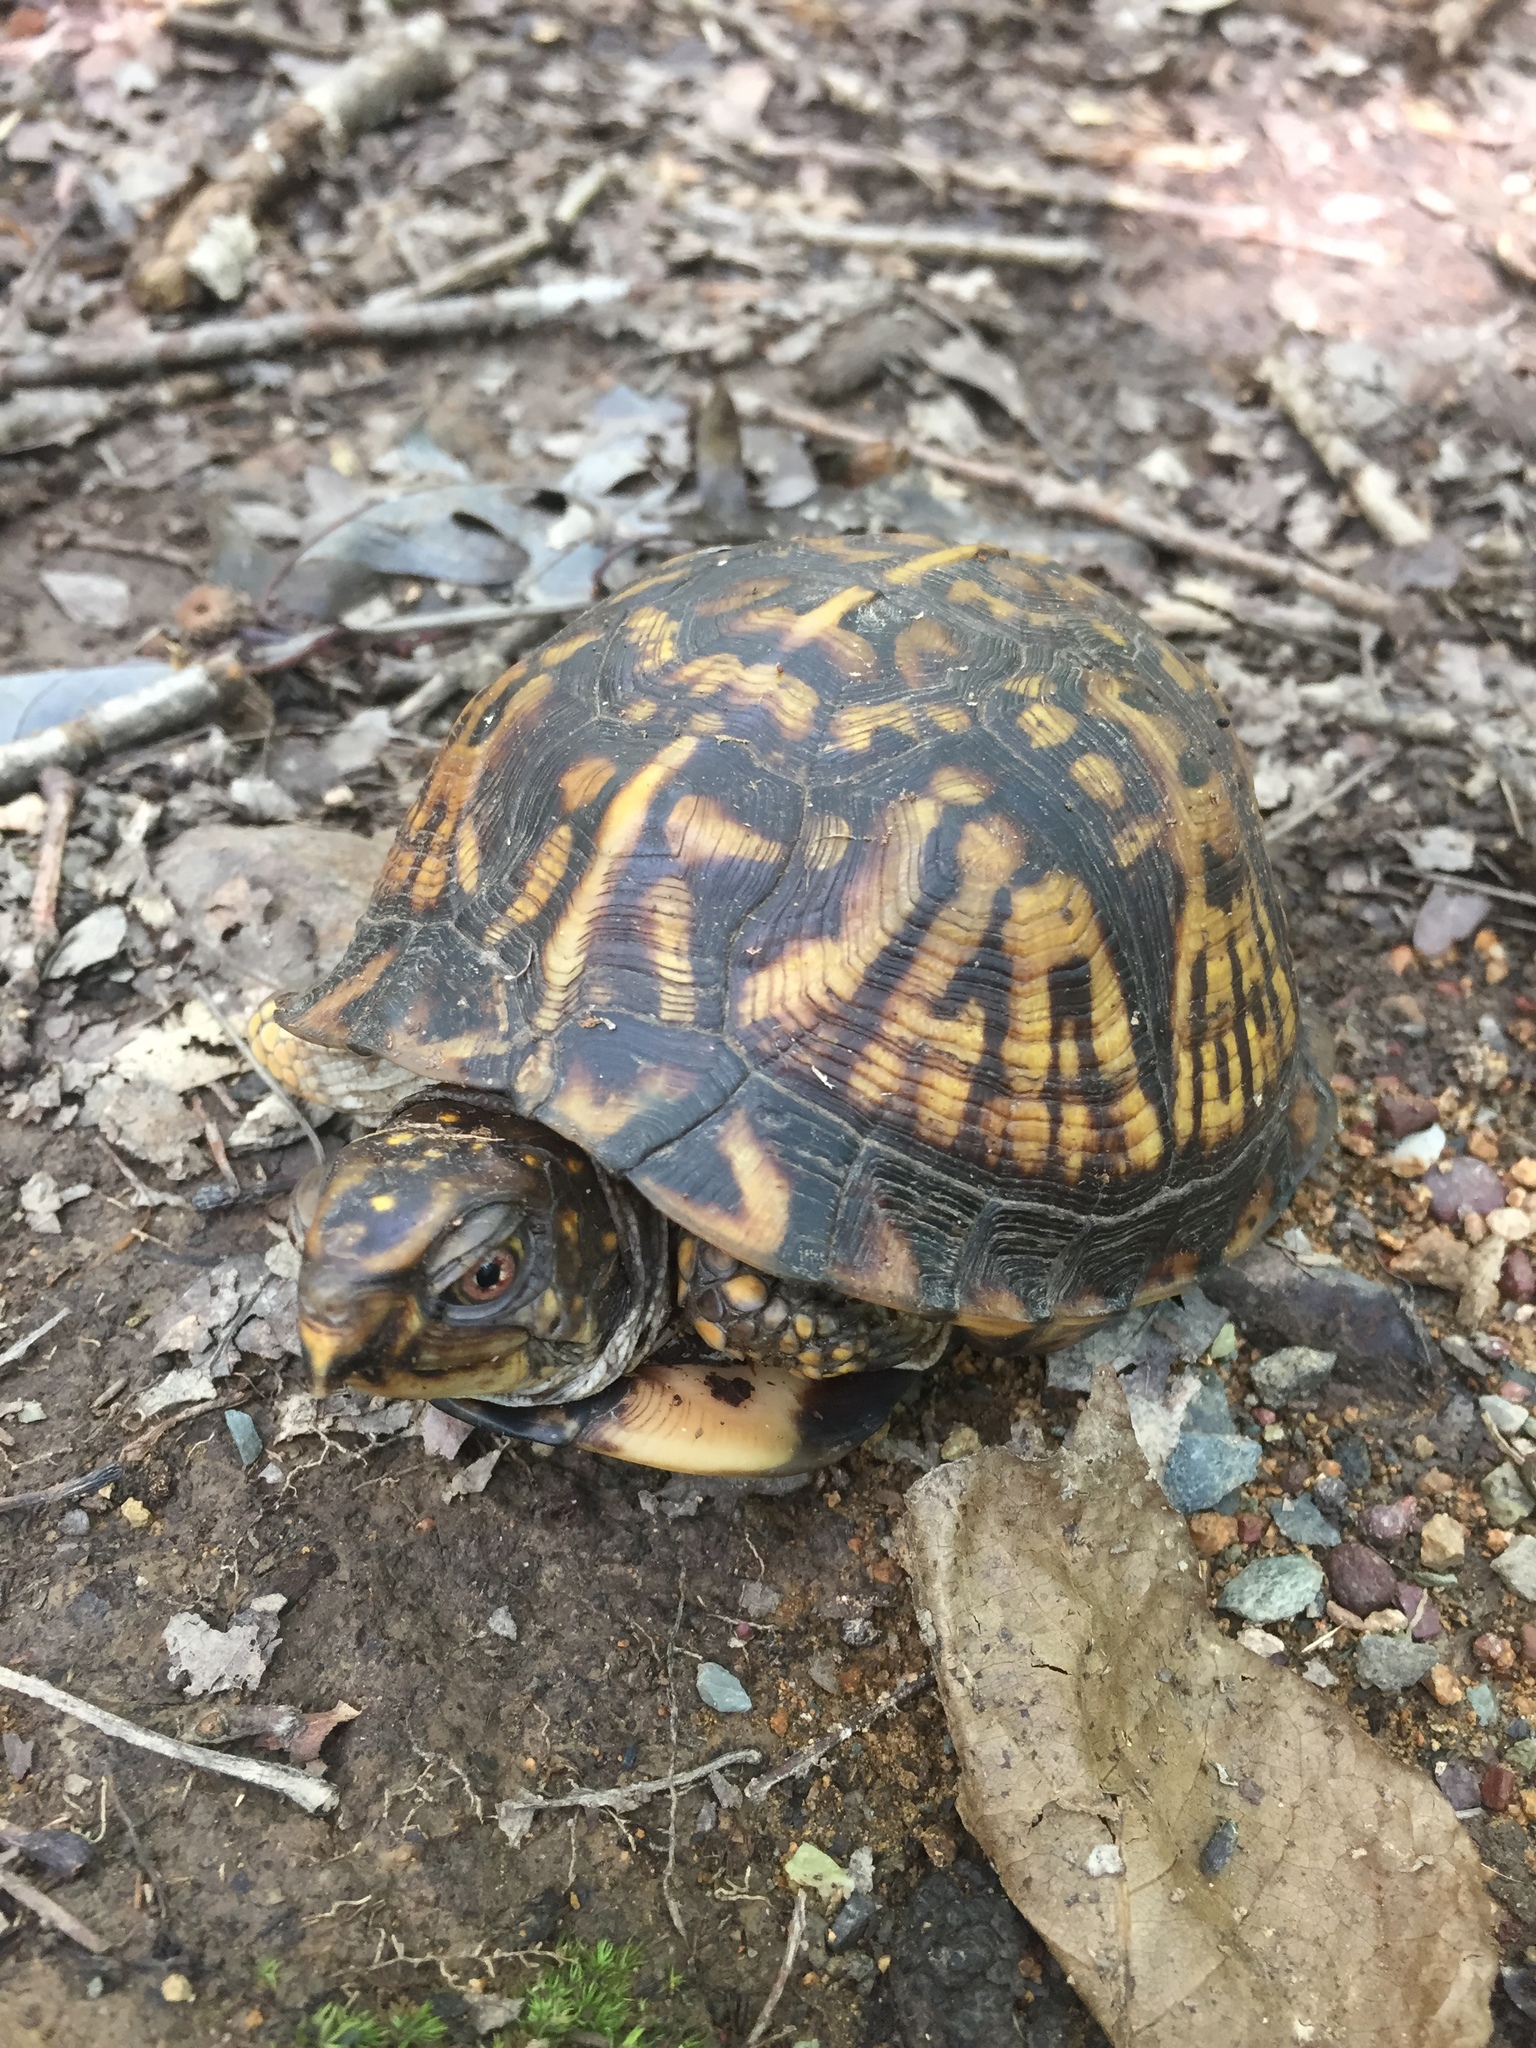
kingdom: Animalia
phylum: Chordata
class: Testudines
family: Emydidae
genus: Terrapene
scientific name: Terrapene carolina
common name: Common box turtle
